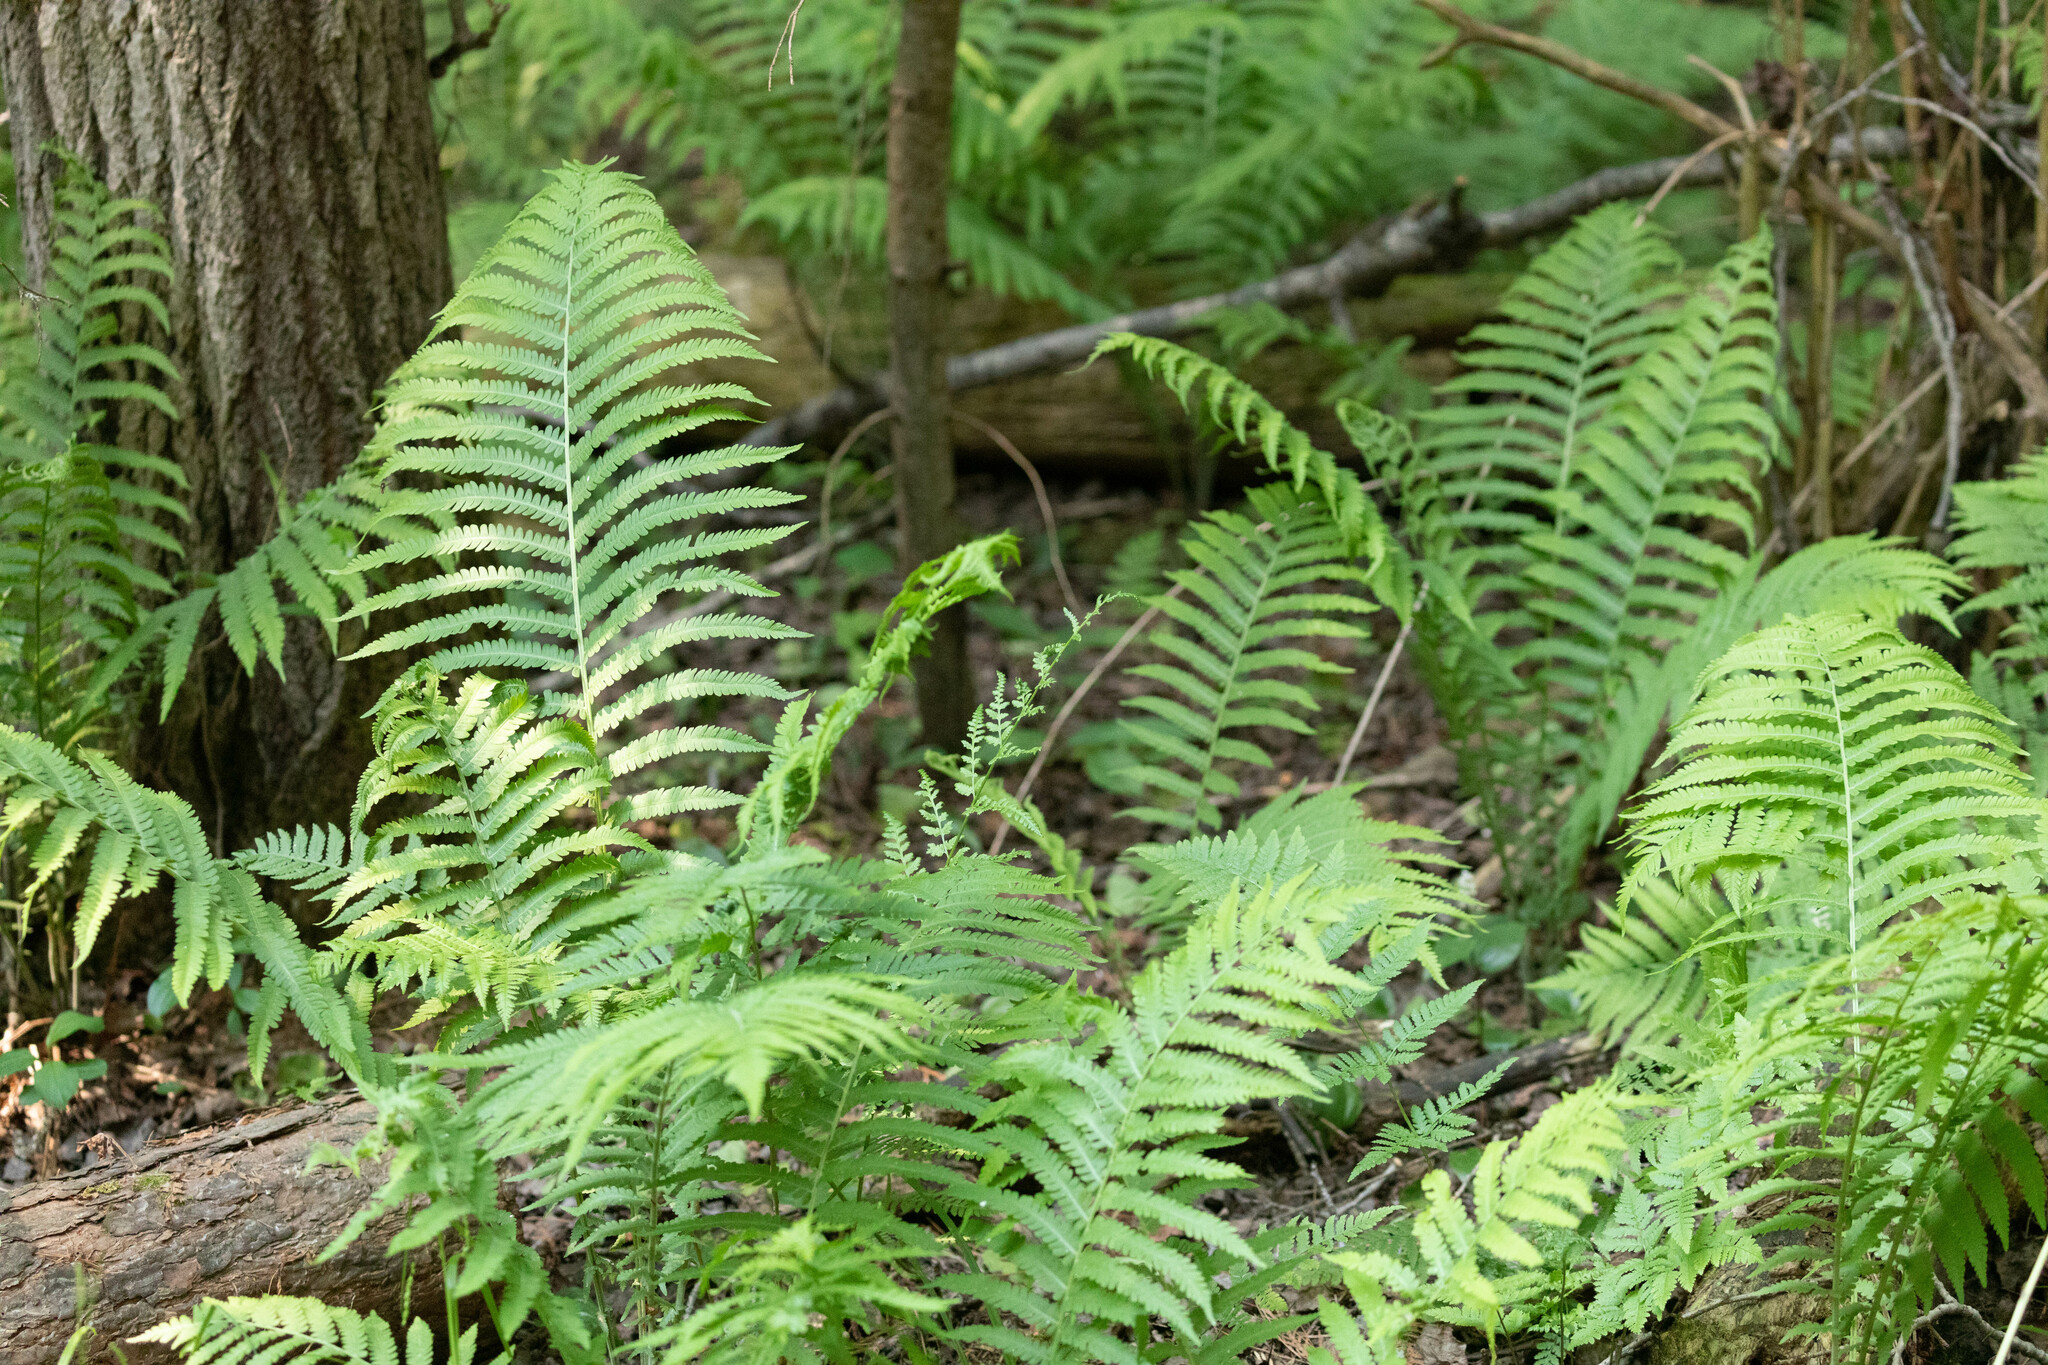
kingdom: Plantae
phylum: Tracheophyta
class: Polypodiopsida
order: Polypodiales
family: Onocleaceae
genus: Matteuccia
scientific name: Matteuccia struthiopteris
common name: Ostrich fern
